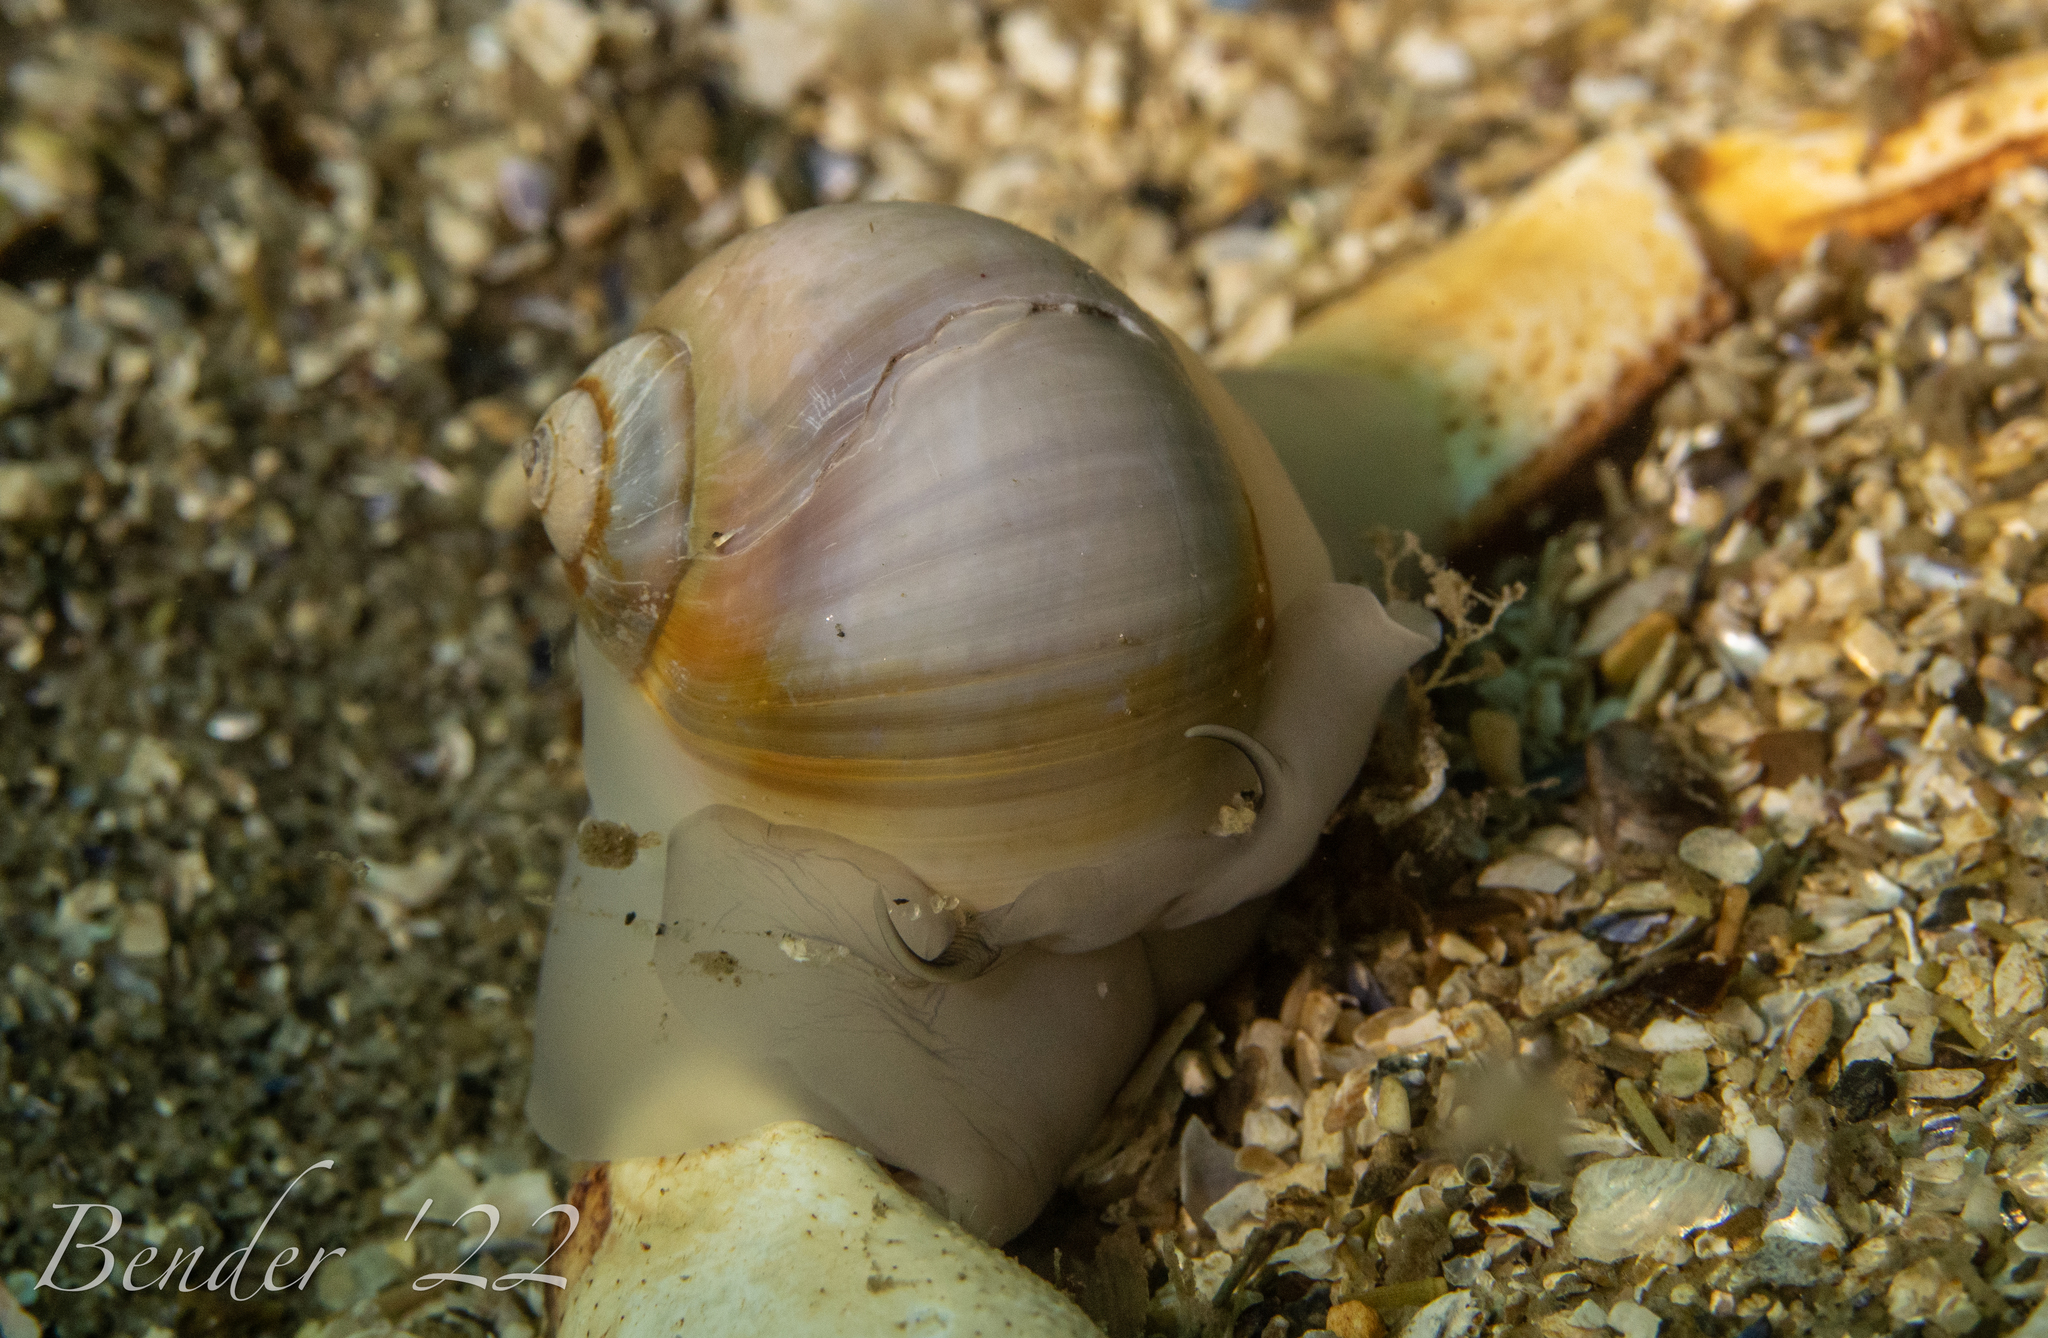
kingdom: Animalia
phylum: Mollusca
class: Gastropoda
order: Littorinimorpha
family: Naticidae
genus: Euspira
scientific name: Euspira heros
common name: Common northern moonsnail
